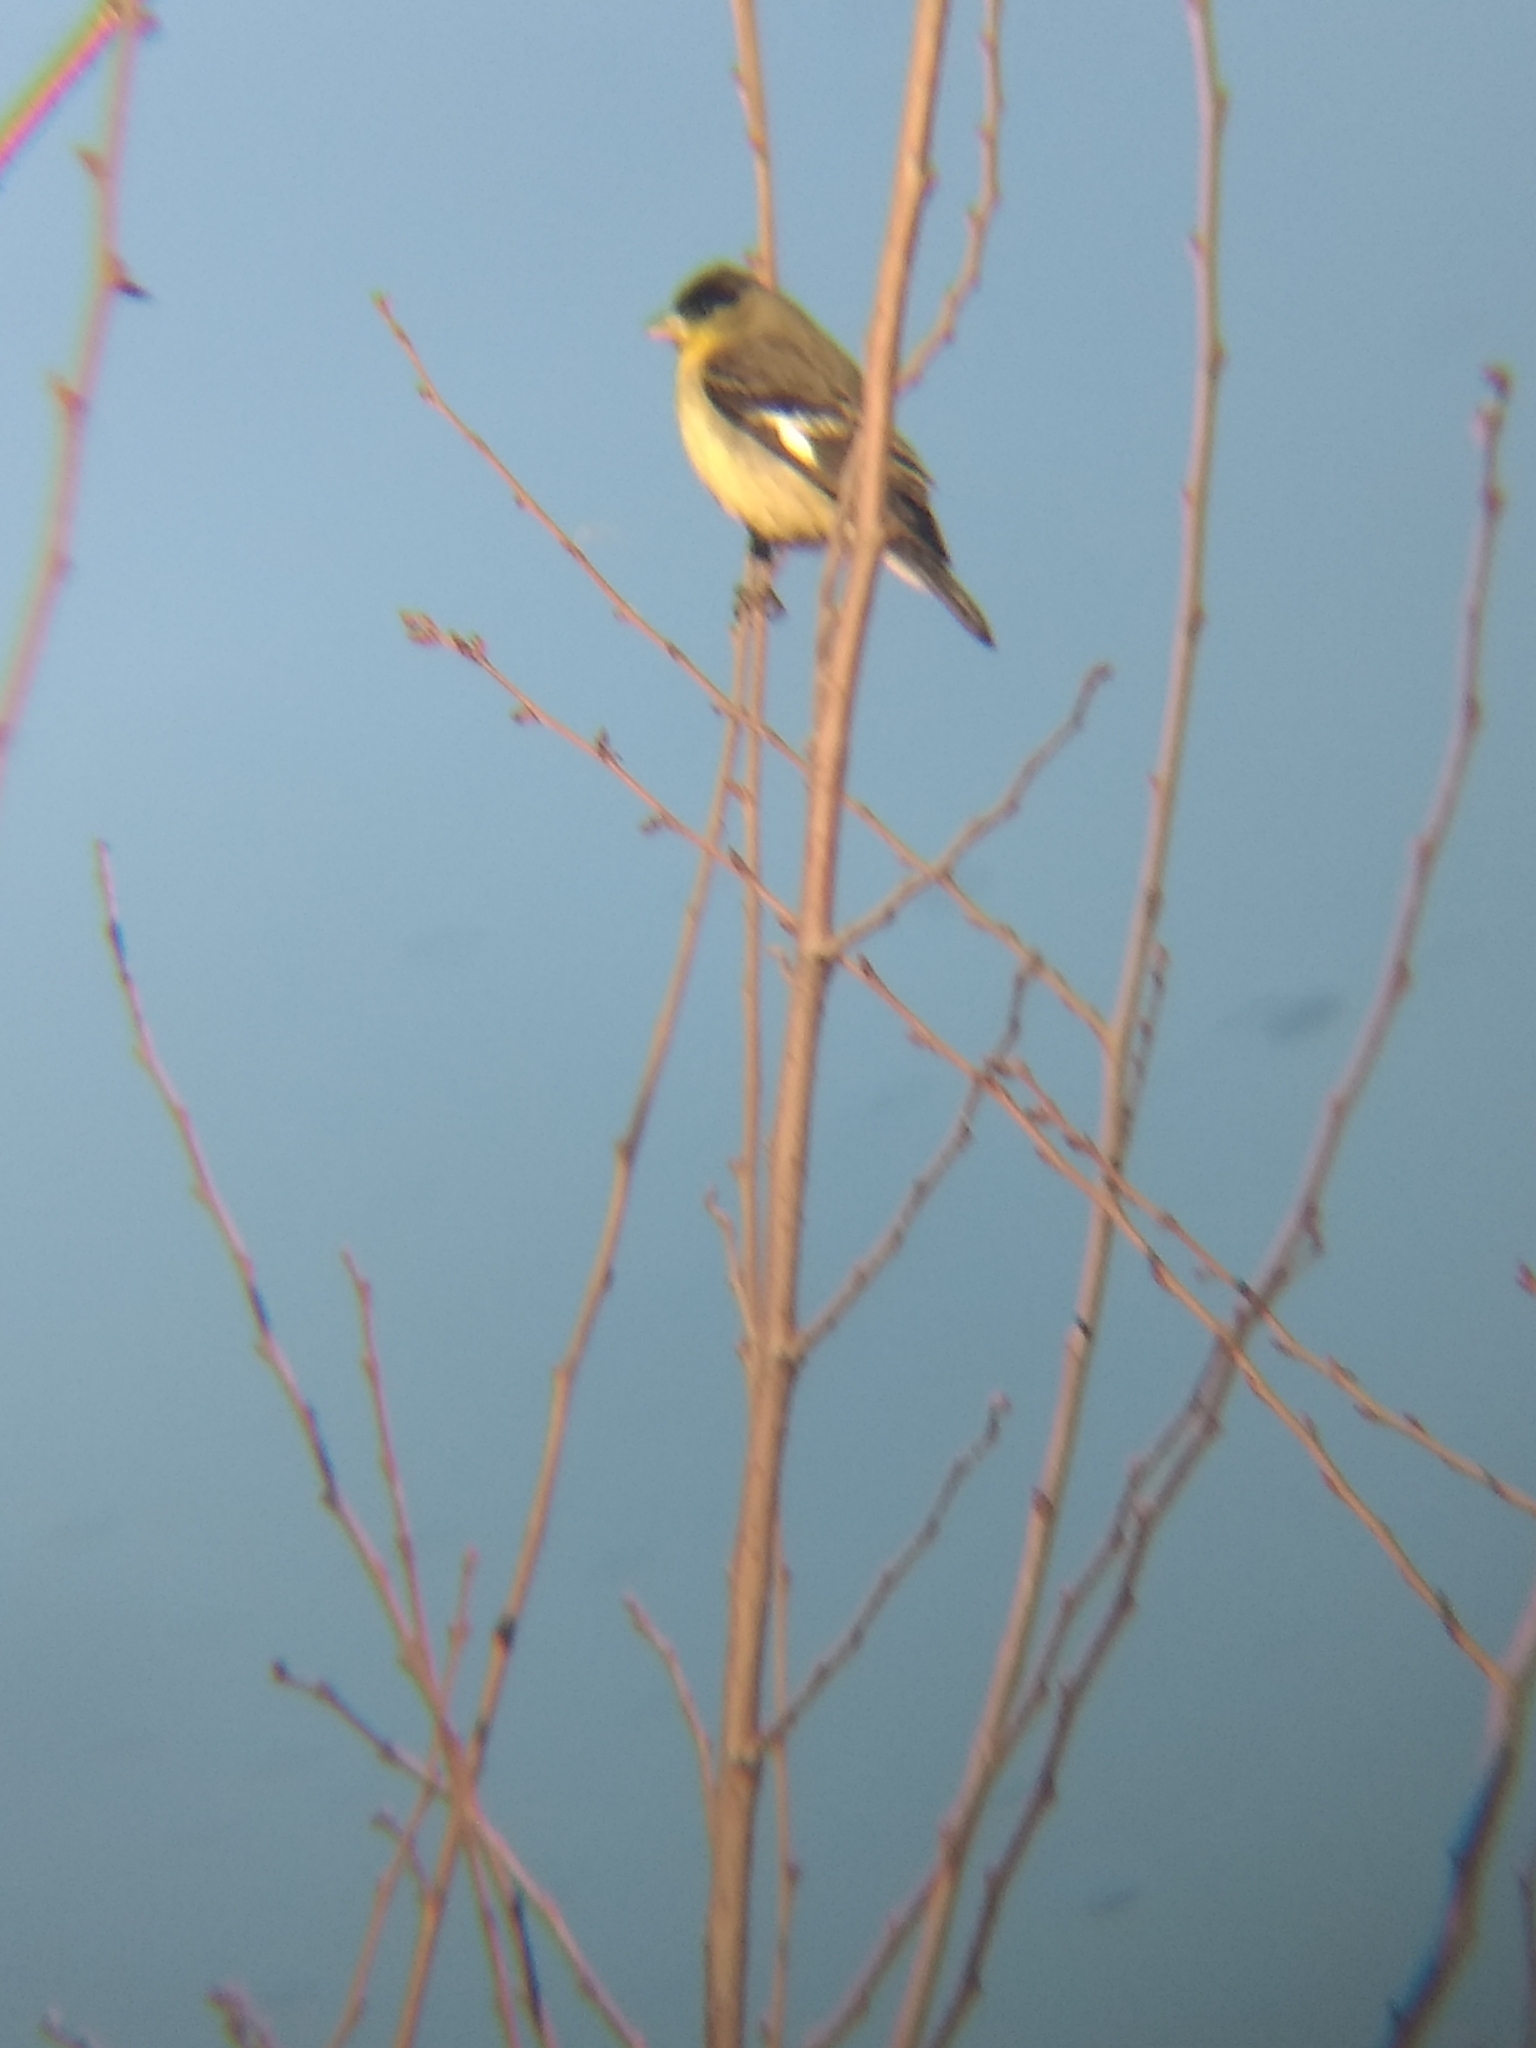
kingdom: Animalia
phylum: Chordata
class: Aves
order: Passeriformes
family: Fringillidae
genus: Spinus
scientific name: Spinus psaltria
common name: Lesser goldfinch
